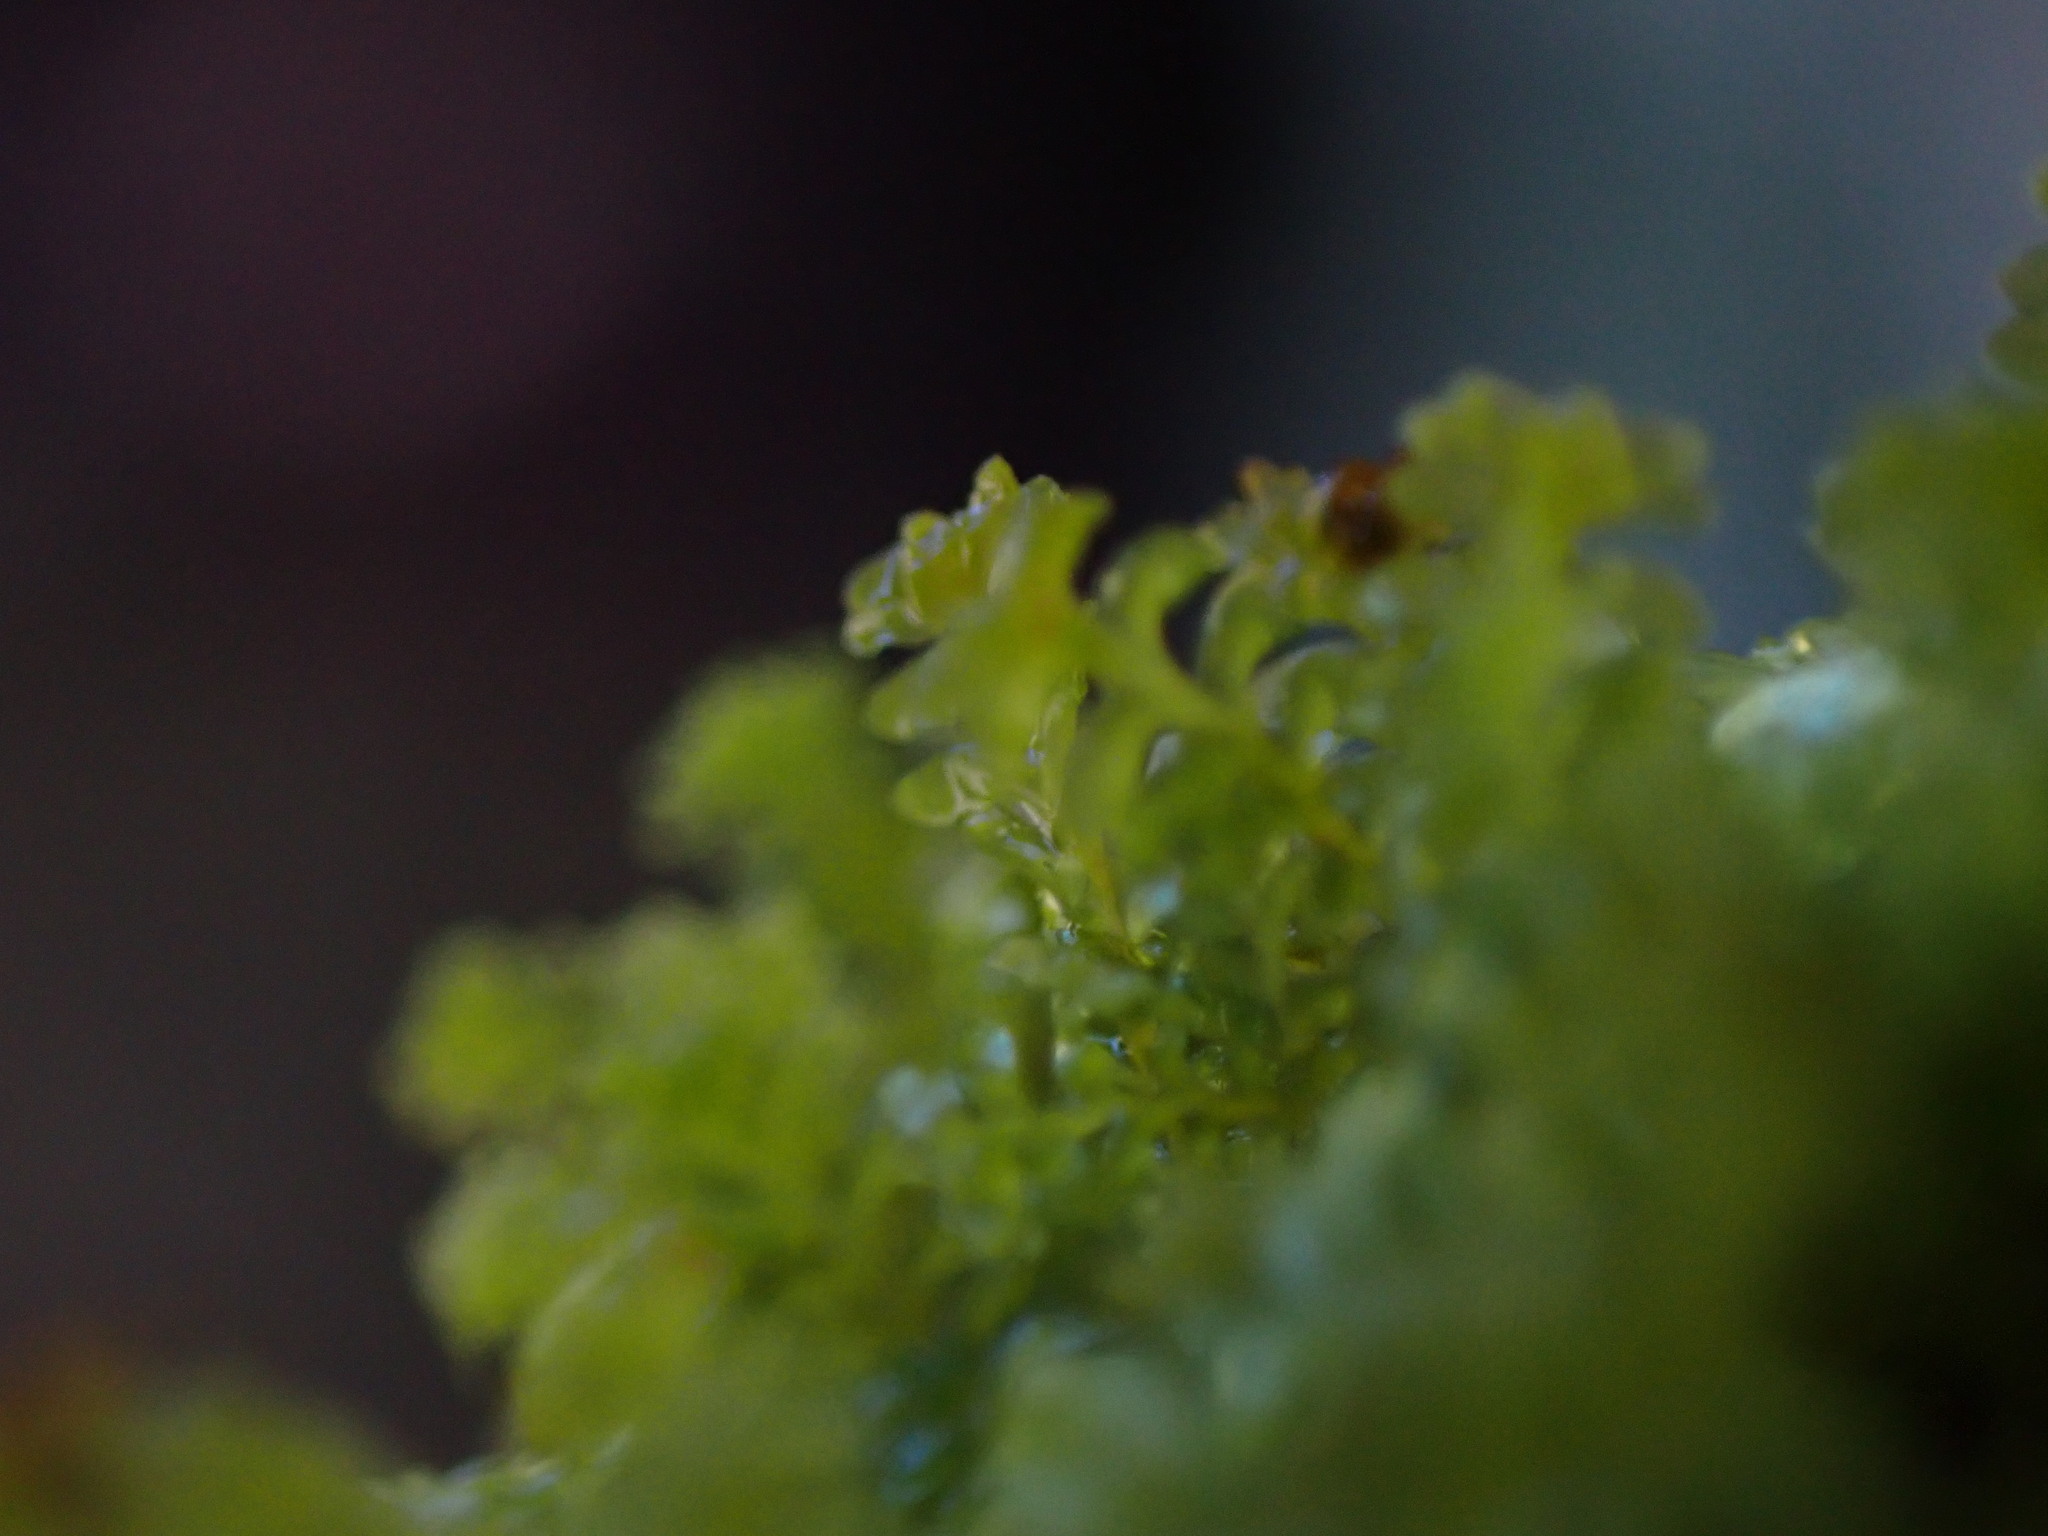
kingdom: Plantae
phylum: Marchantiophyta
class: Jungermanniopsida
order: Jungermanniales
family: Scapaniaceae
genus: Diplophyllum
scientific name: Diplophyllum taxifolium
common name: Alpine earwort
